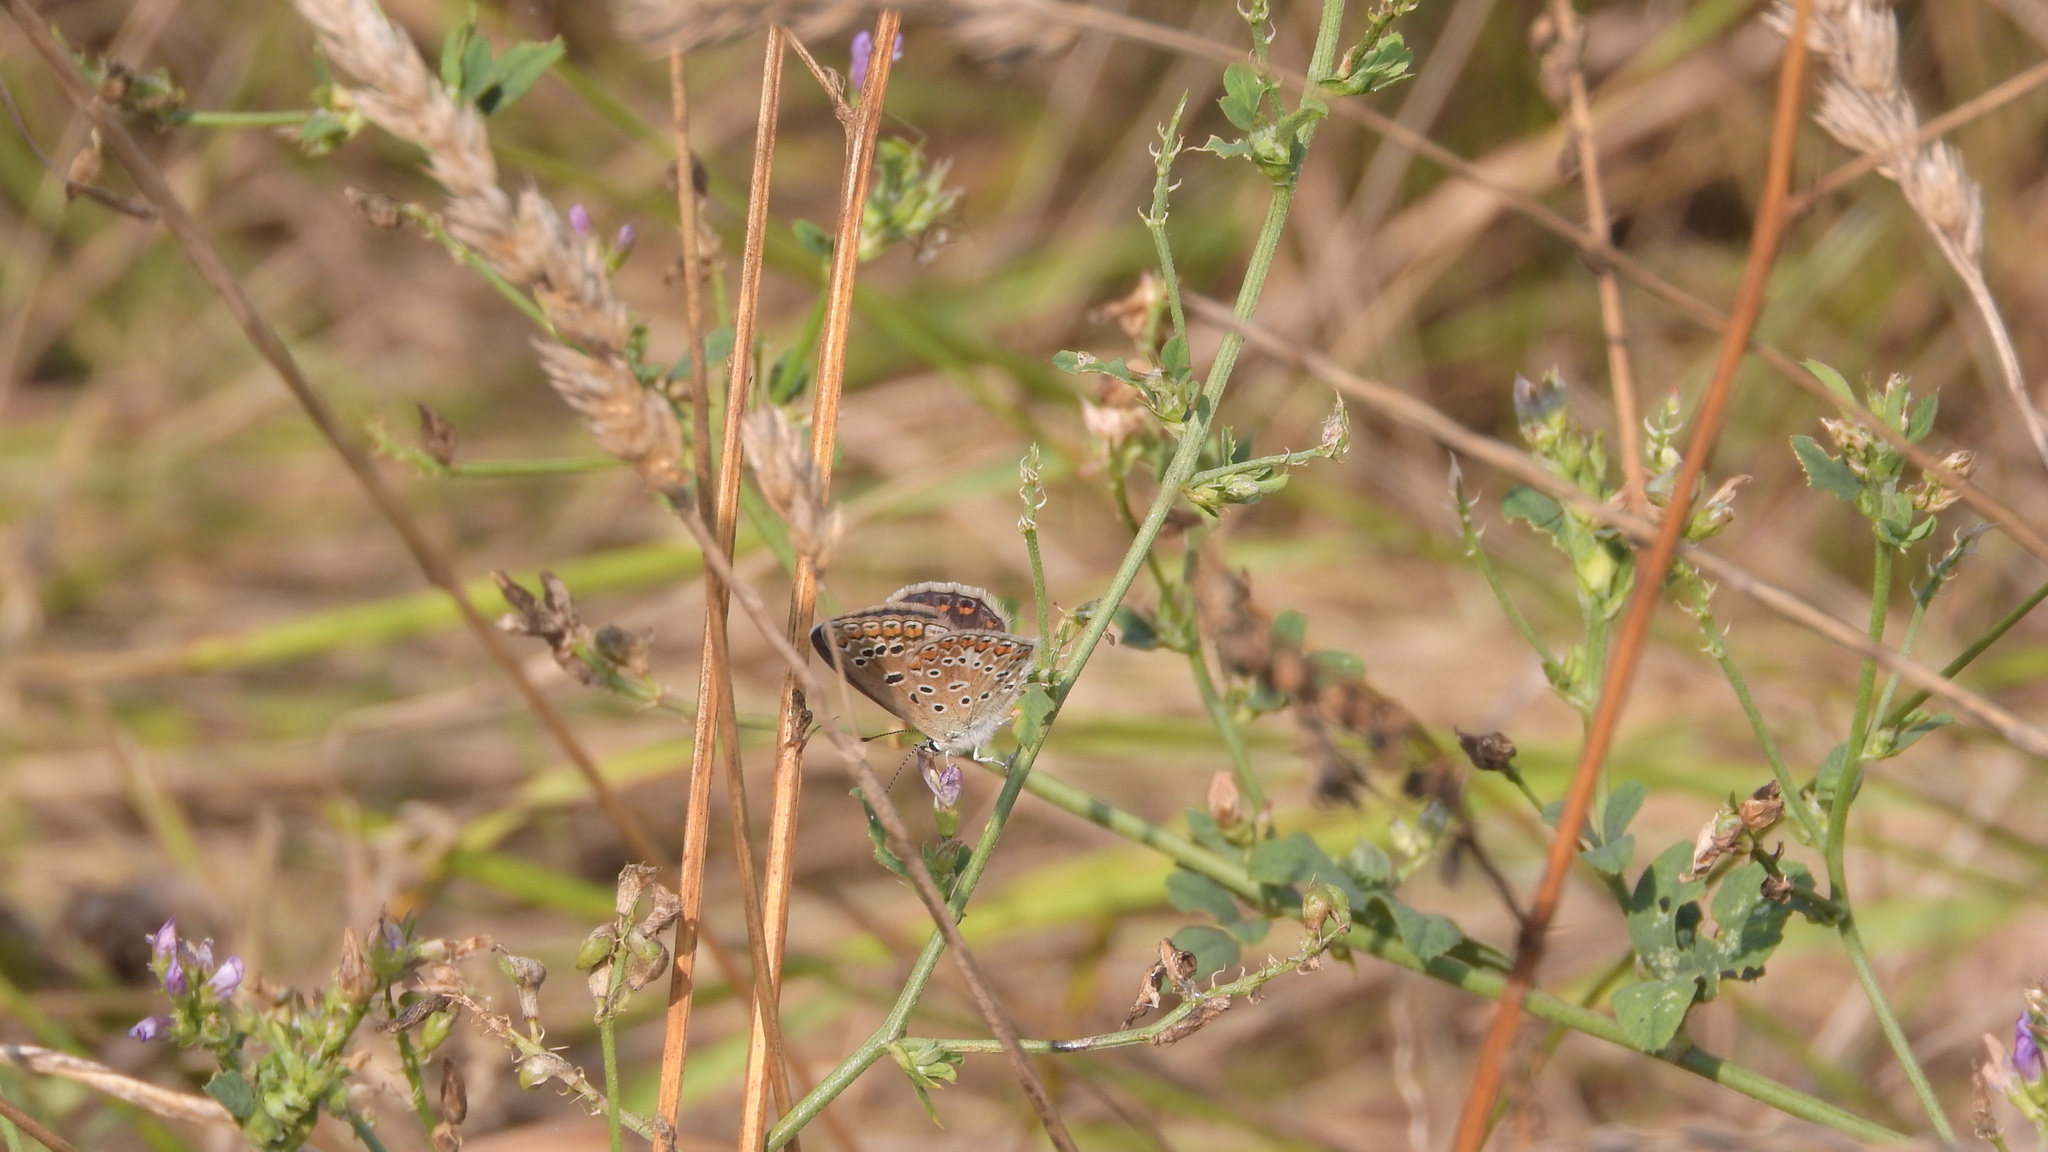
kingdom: Animalia
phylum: Arthropoda
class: Insecta
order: Lepidoptera
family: Lycaenidae
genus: Polyommatus
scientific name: Polyommatus icarus
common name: Common blue
